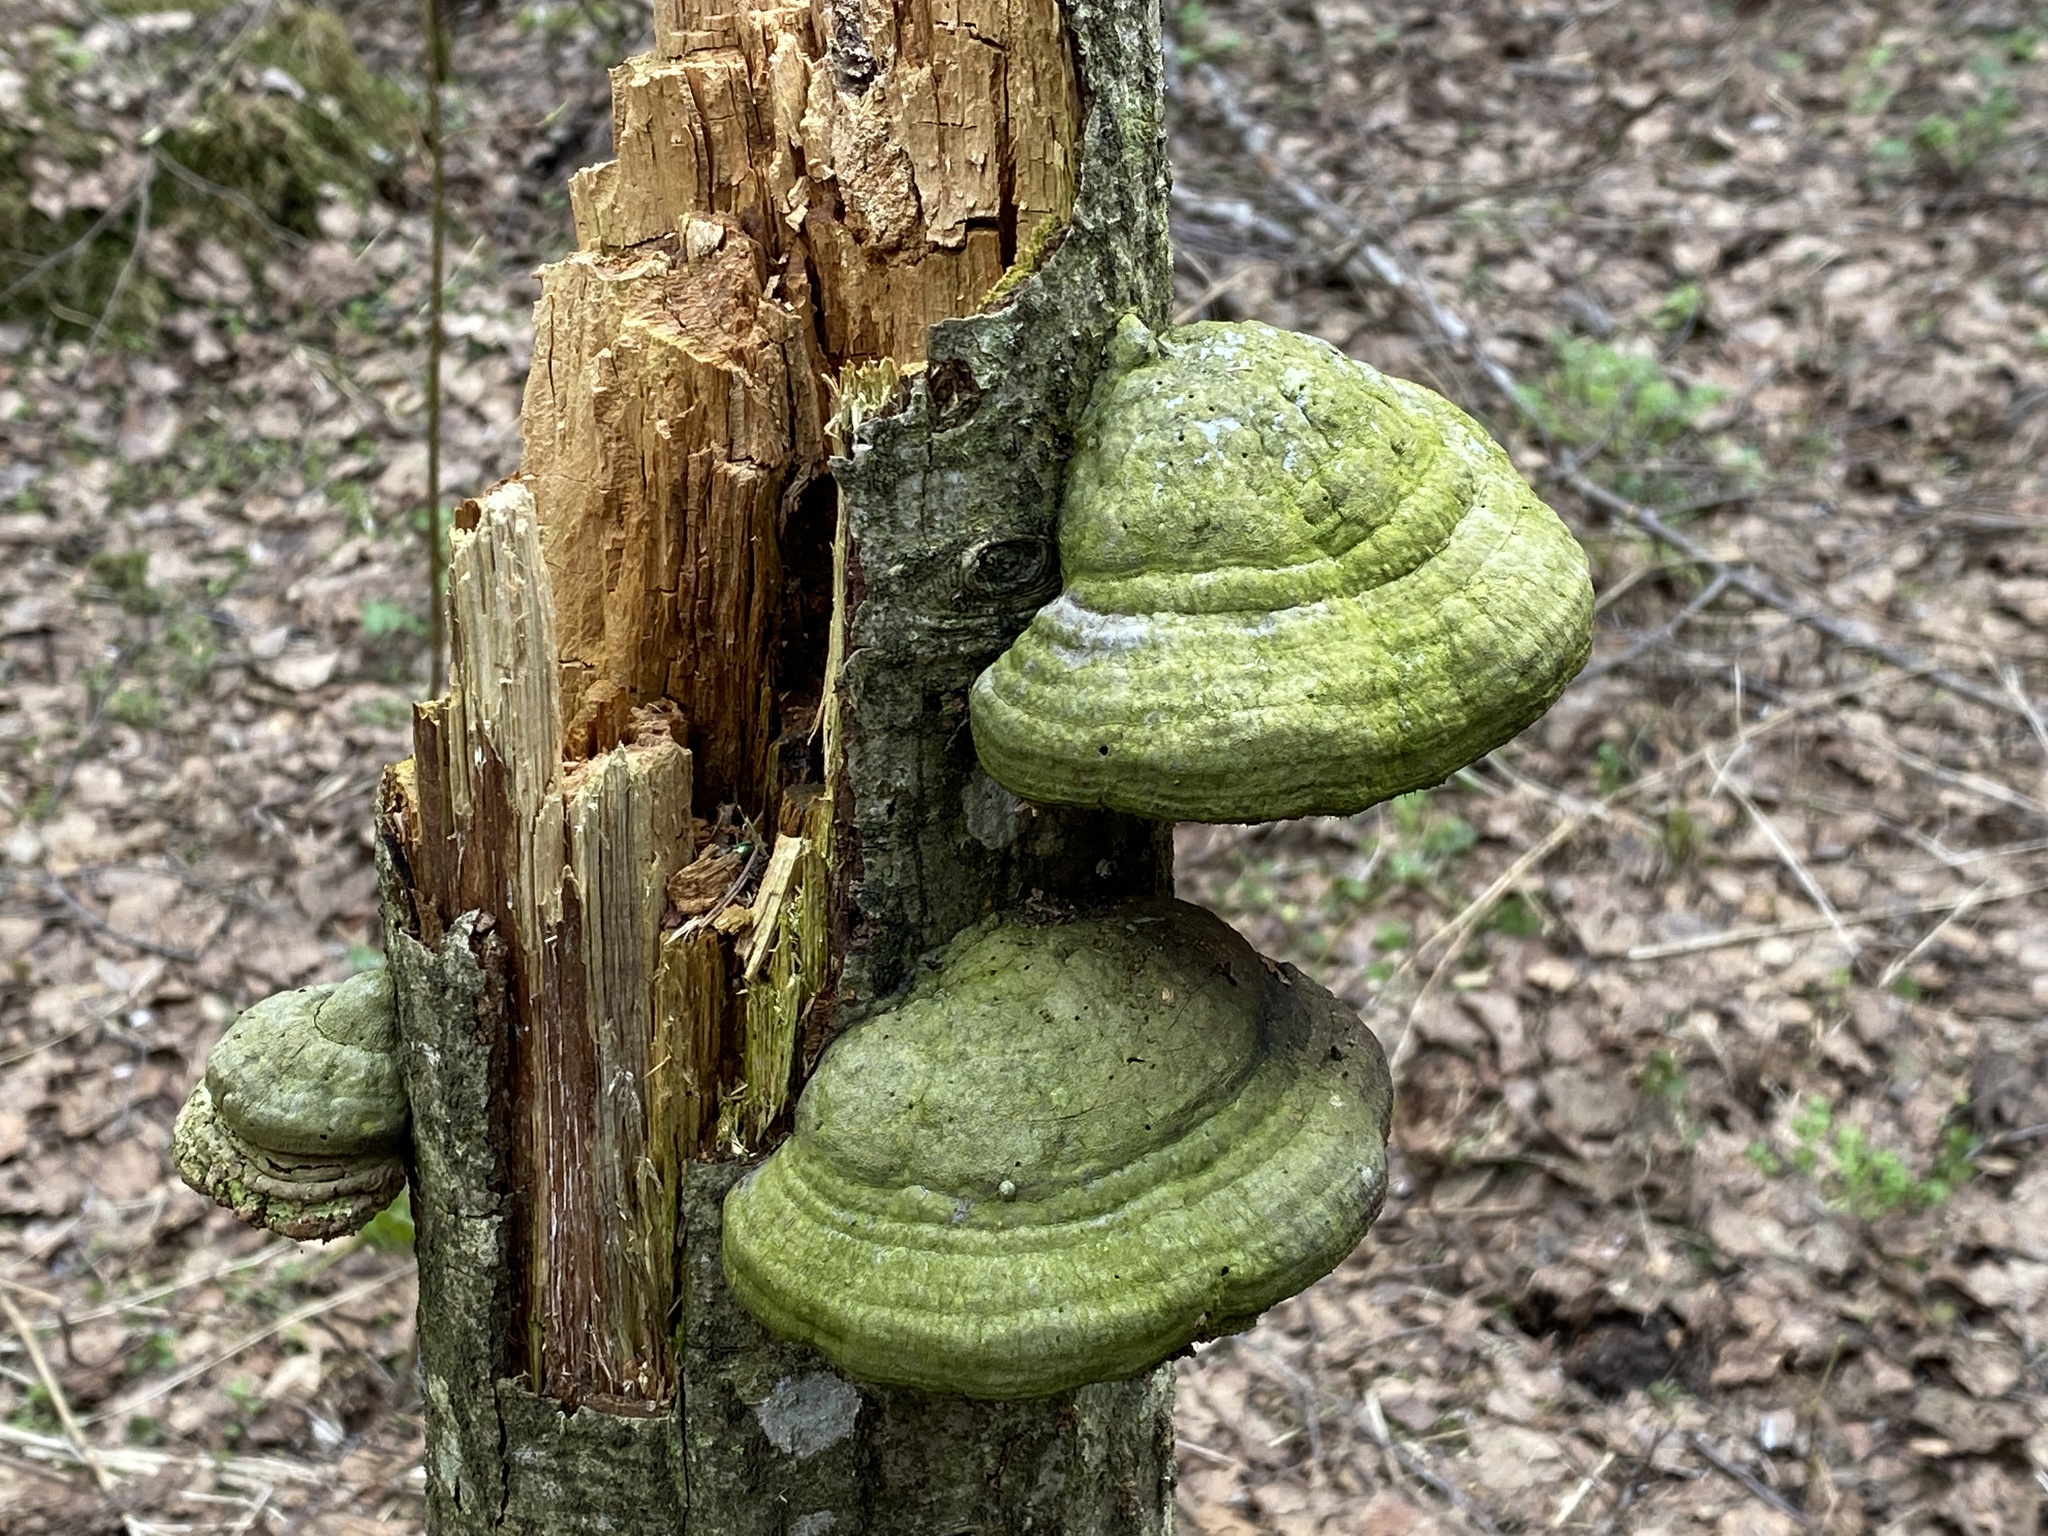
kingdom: Fungi
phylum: Basidiomycota
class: Agaricomycetes
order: Polyporales
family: Polyporaceae
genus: Fomes
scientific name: Fomes fomentarius
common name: Hoof fungus
